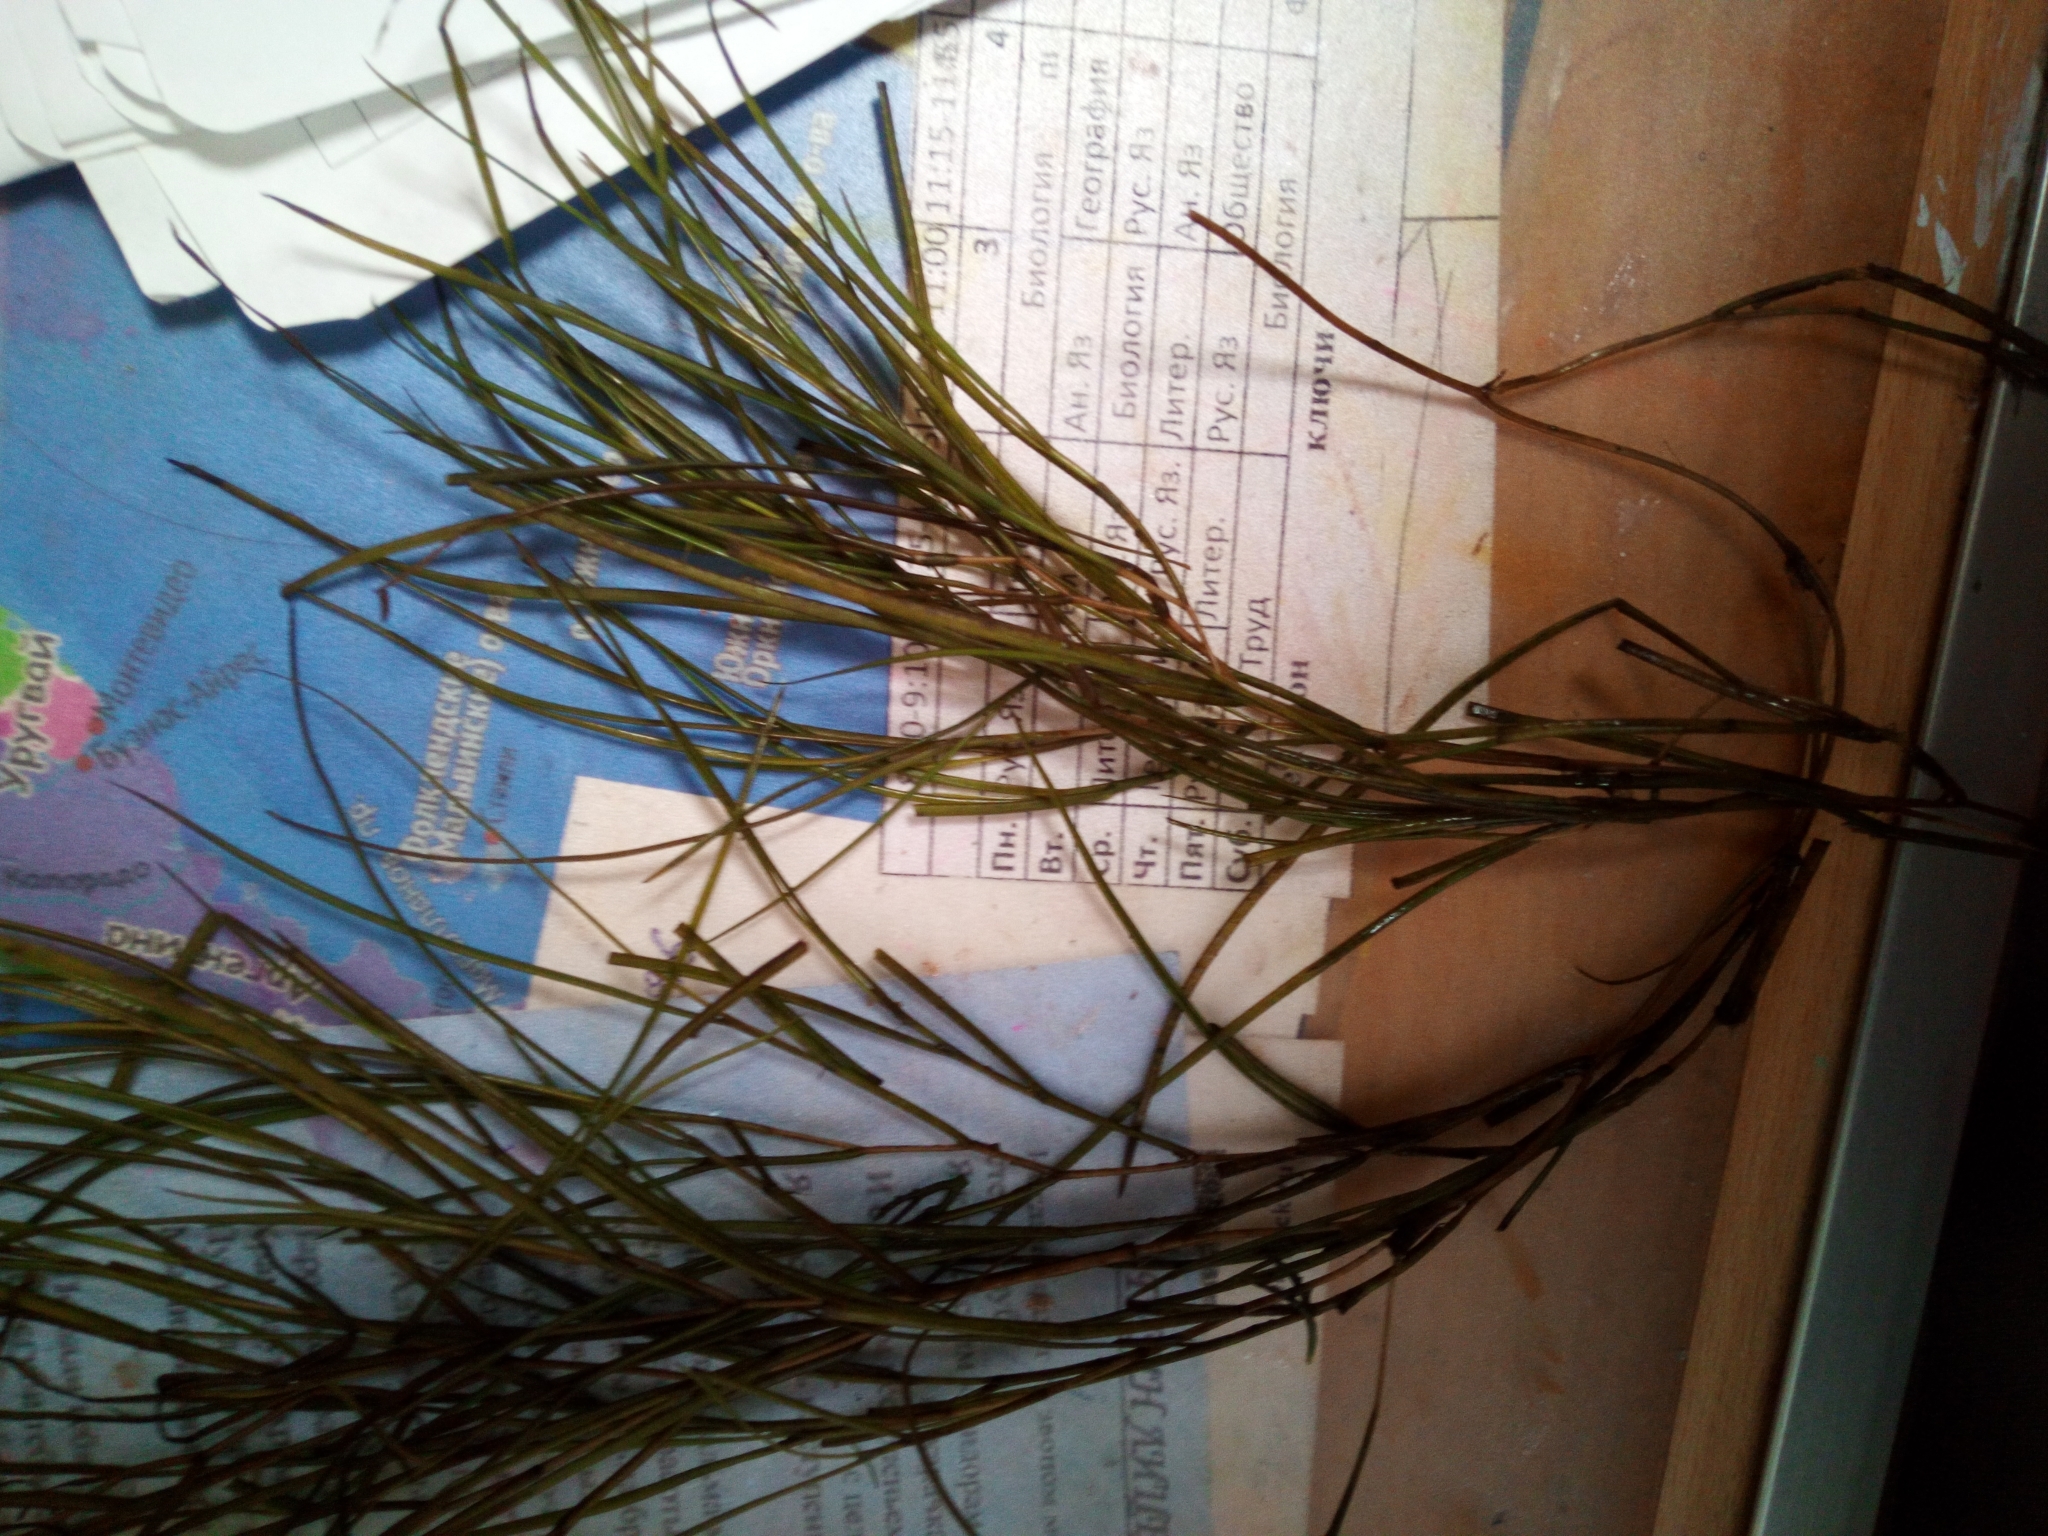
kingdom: Plantae
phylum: Tracheophyta
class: Liliopsida
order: Alismatales
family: Potamogetonaceae
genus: Stuckenia
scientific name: Stuckenia pectinata
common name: Sago pondweed
